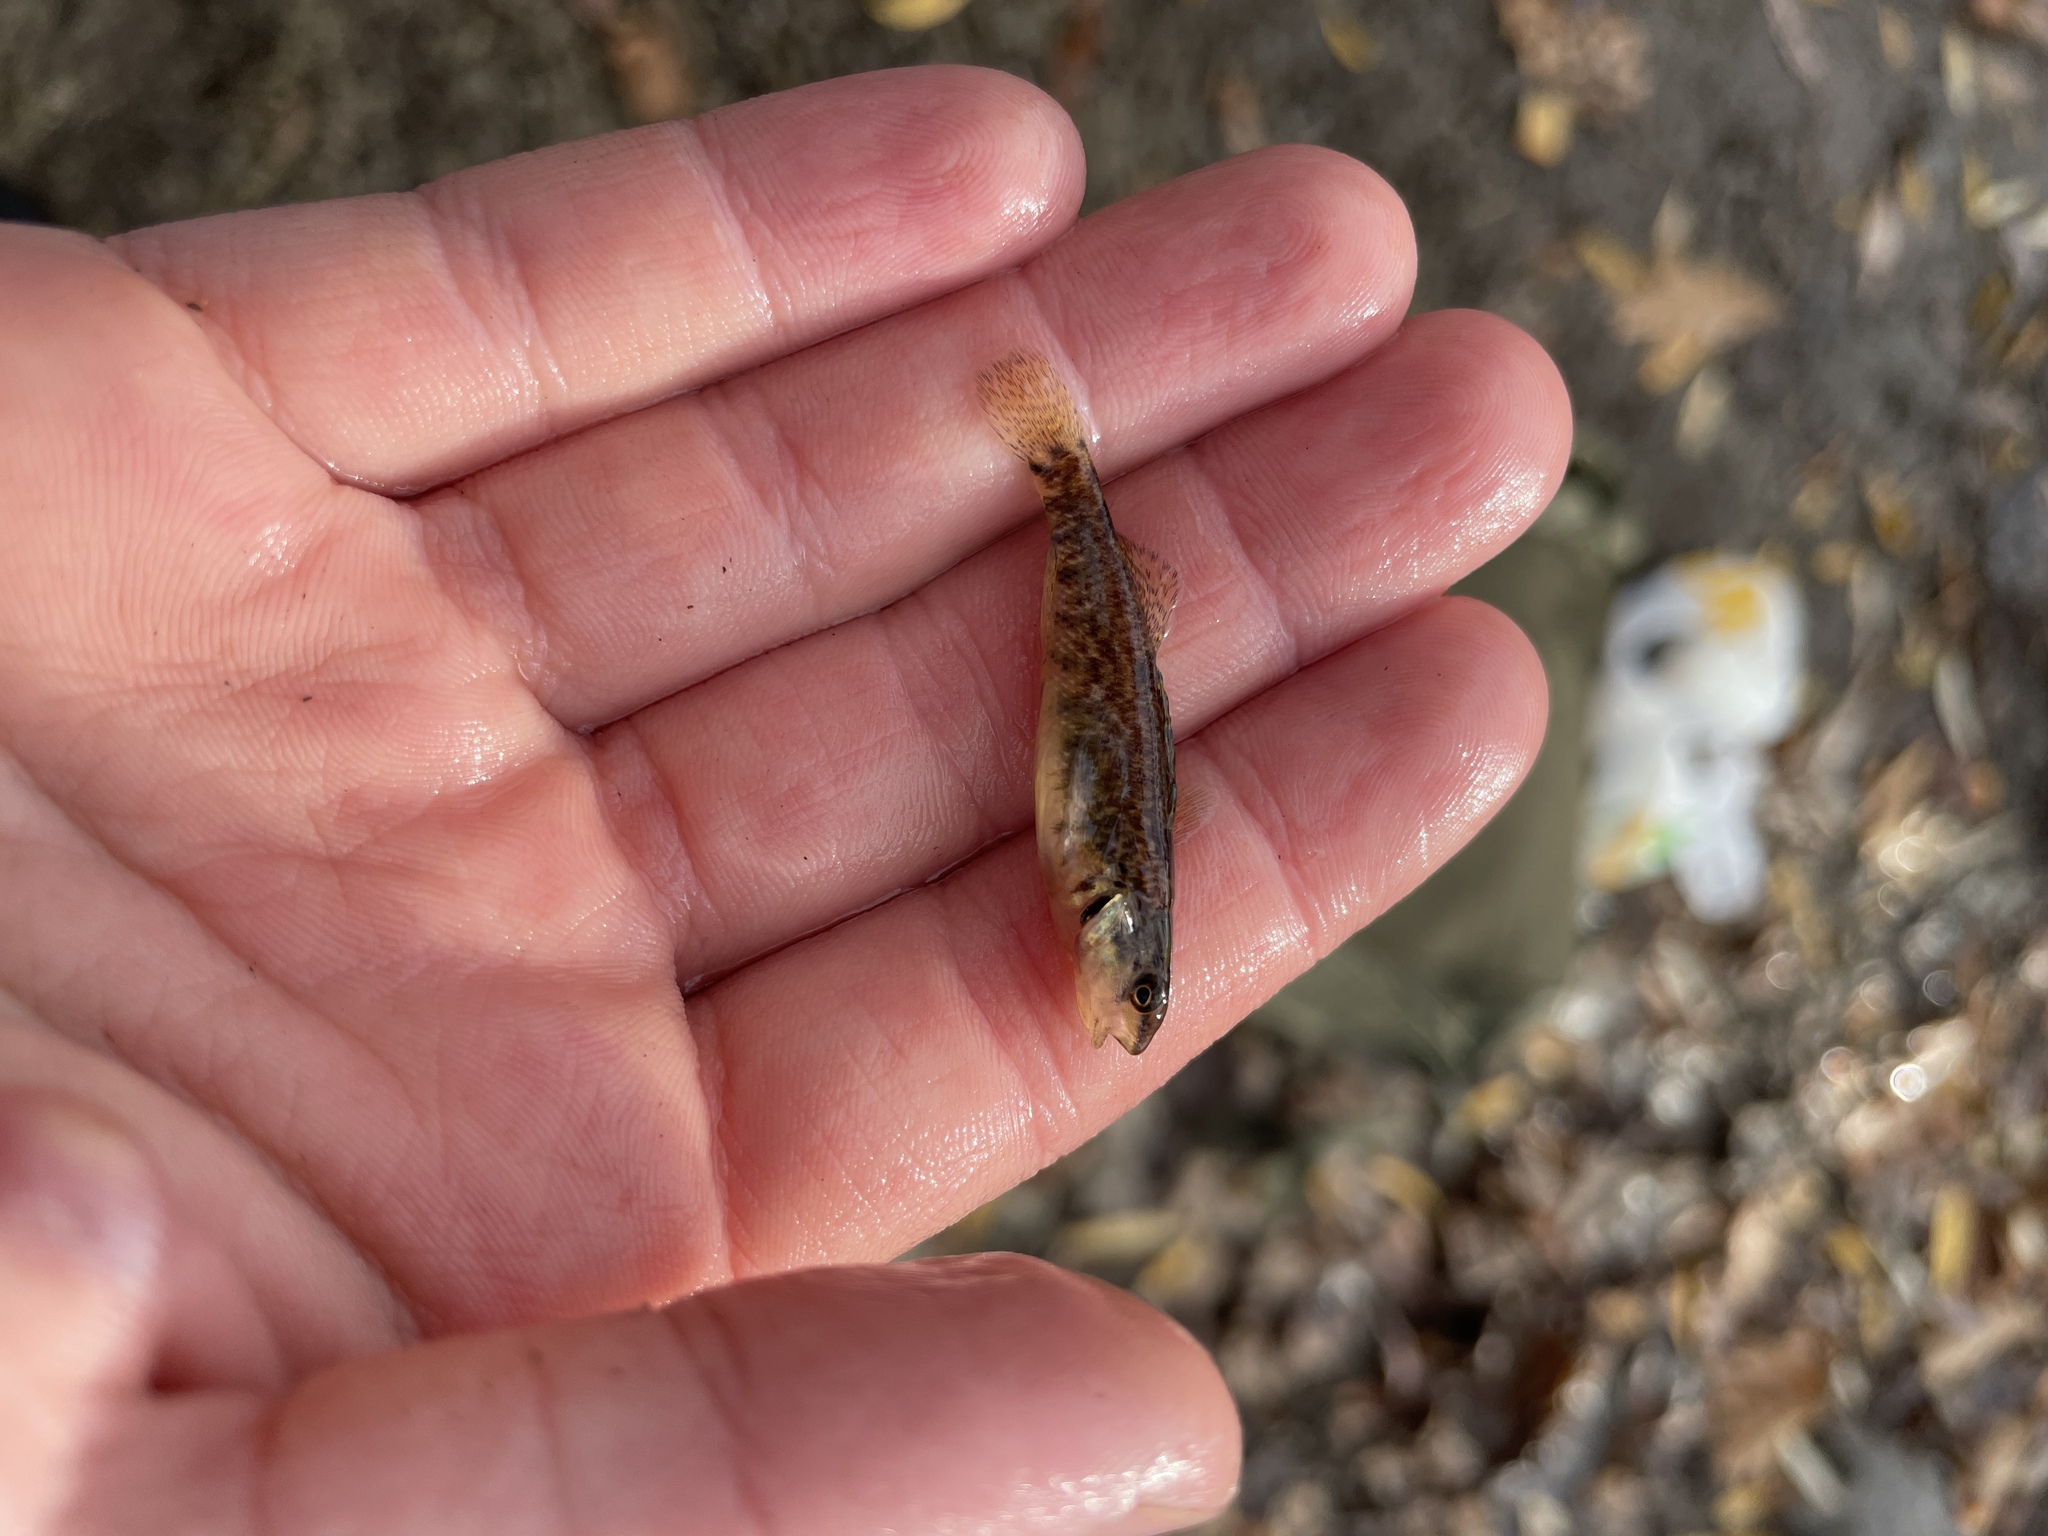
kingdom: Animalia
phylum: Chordata
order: Perciformes
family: Percidae
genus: Etheostoma
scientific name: Etheostoma caeruleum
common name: Rainbow darter
